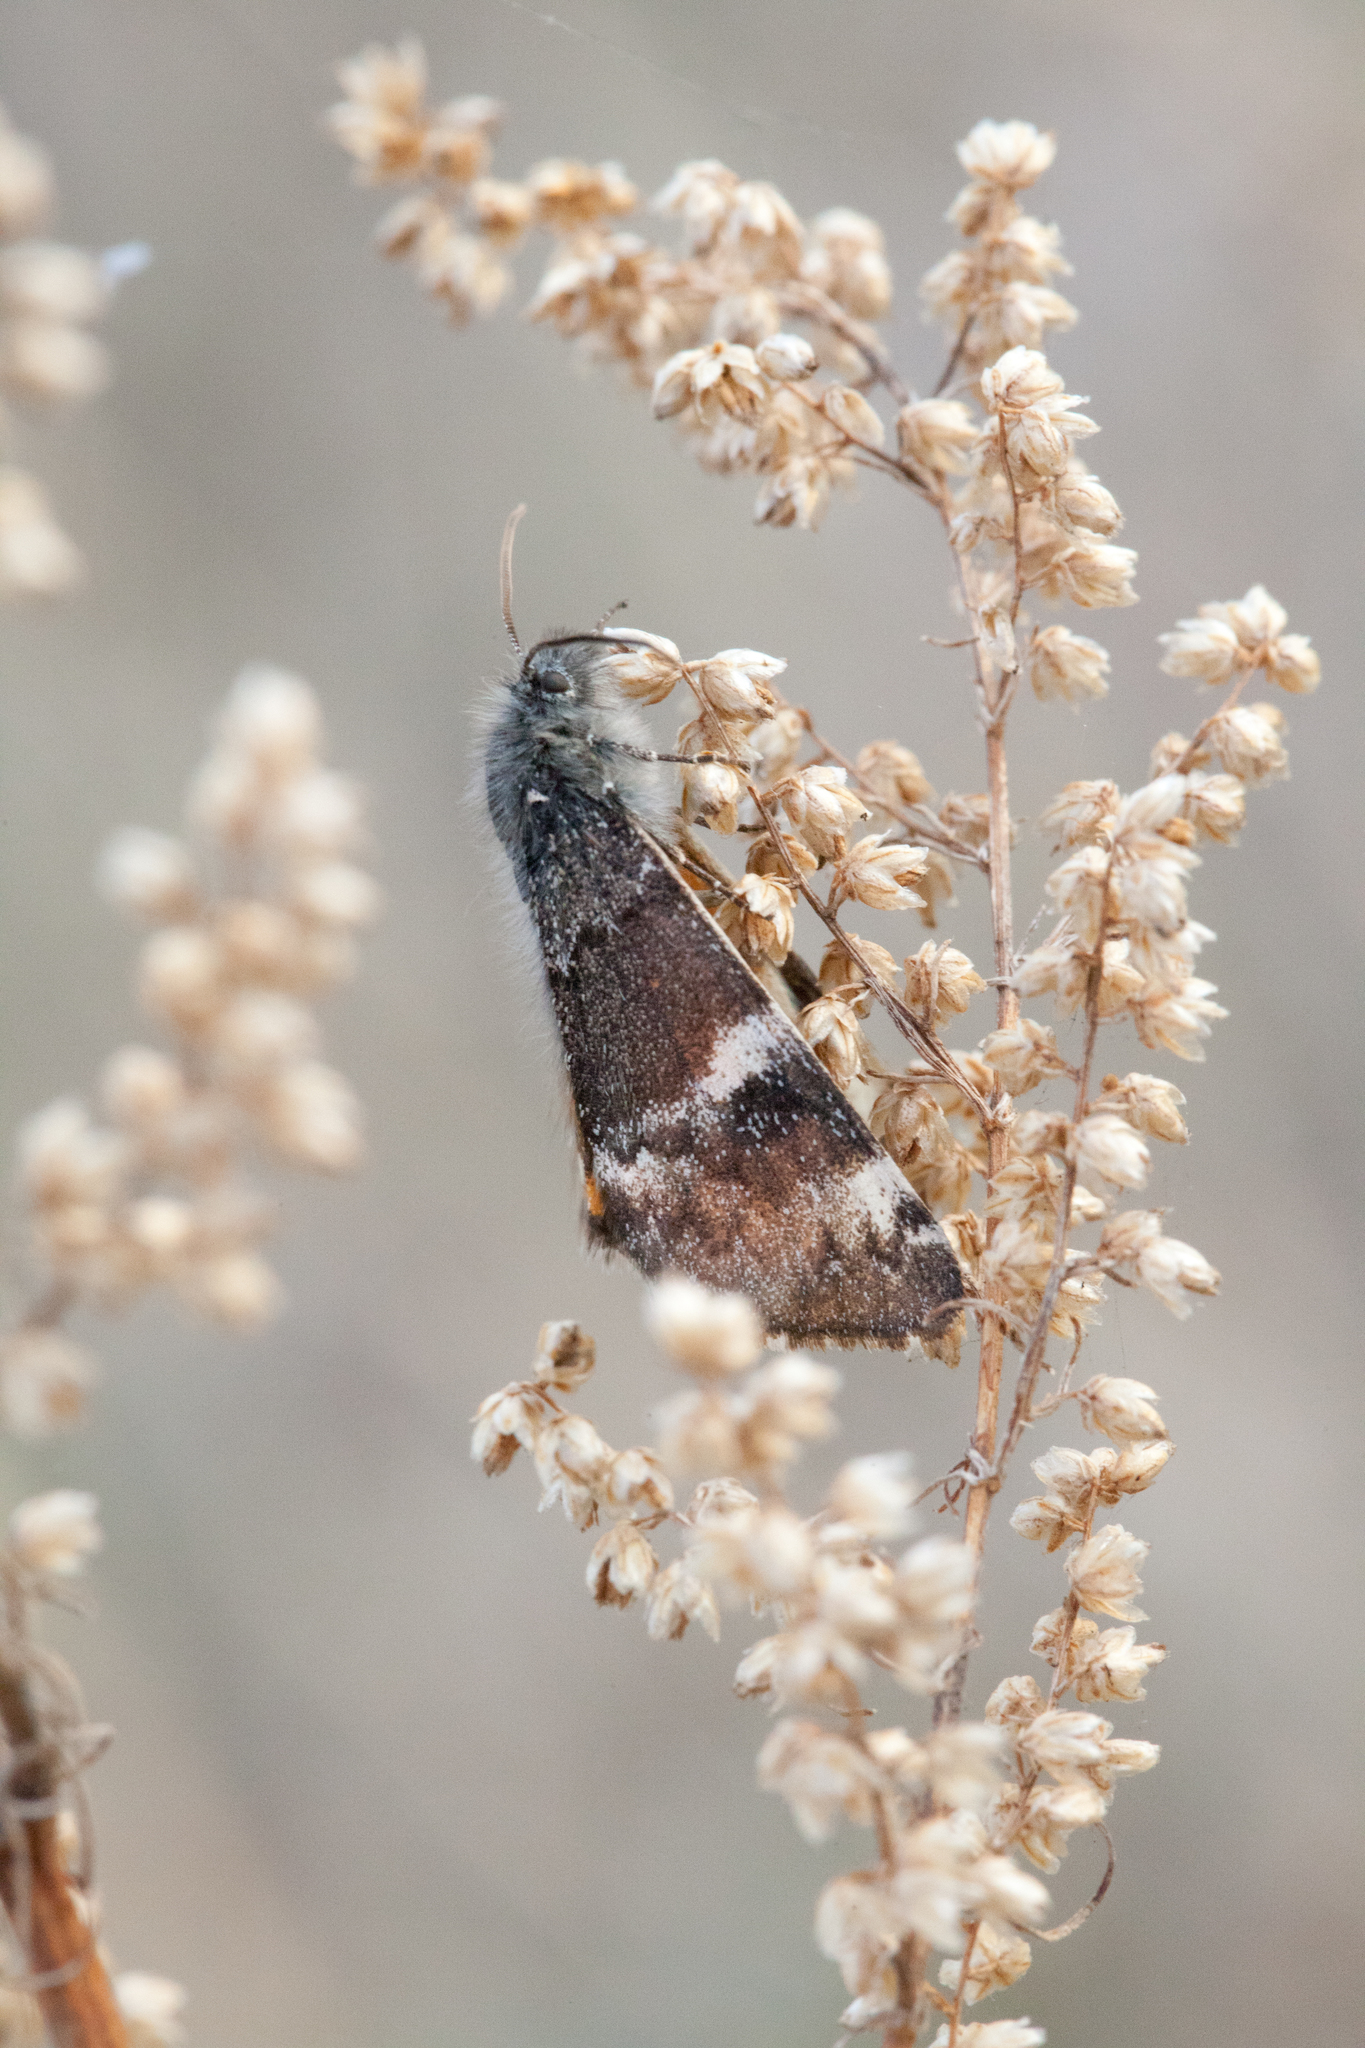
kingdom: Animalia
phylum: Arthropoda
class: Insecta
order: Lepidoptera
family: Geometridae
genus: Archiearis
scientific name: Archiearis parthenias
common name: Orange underwing
